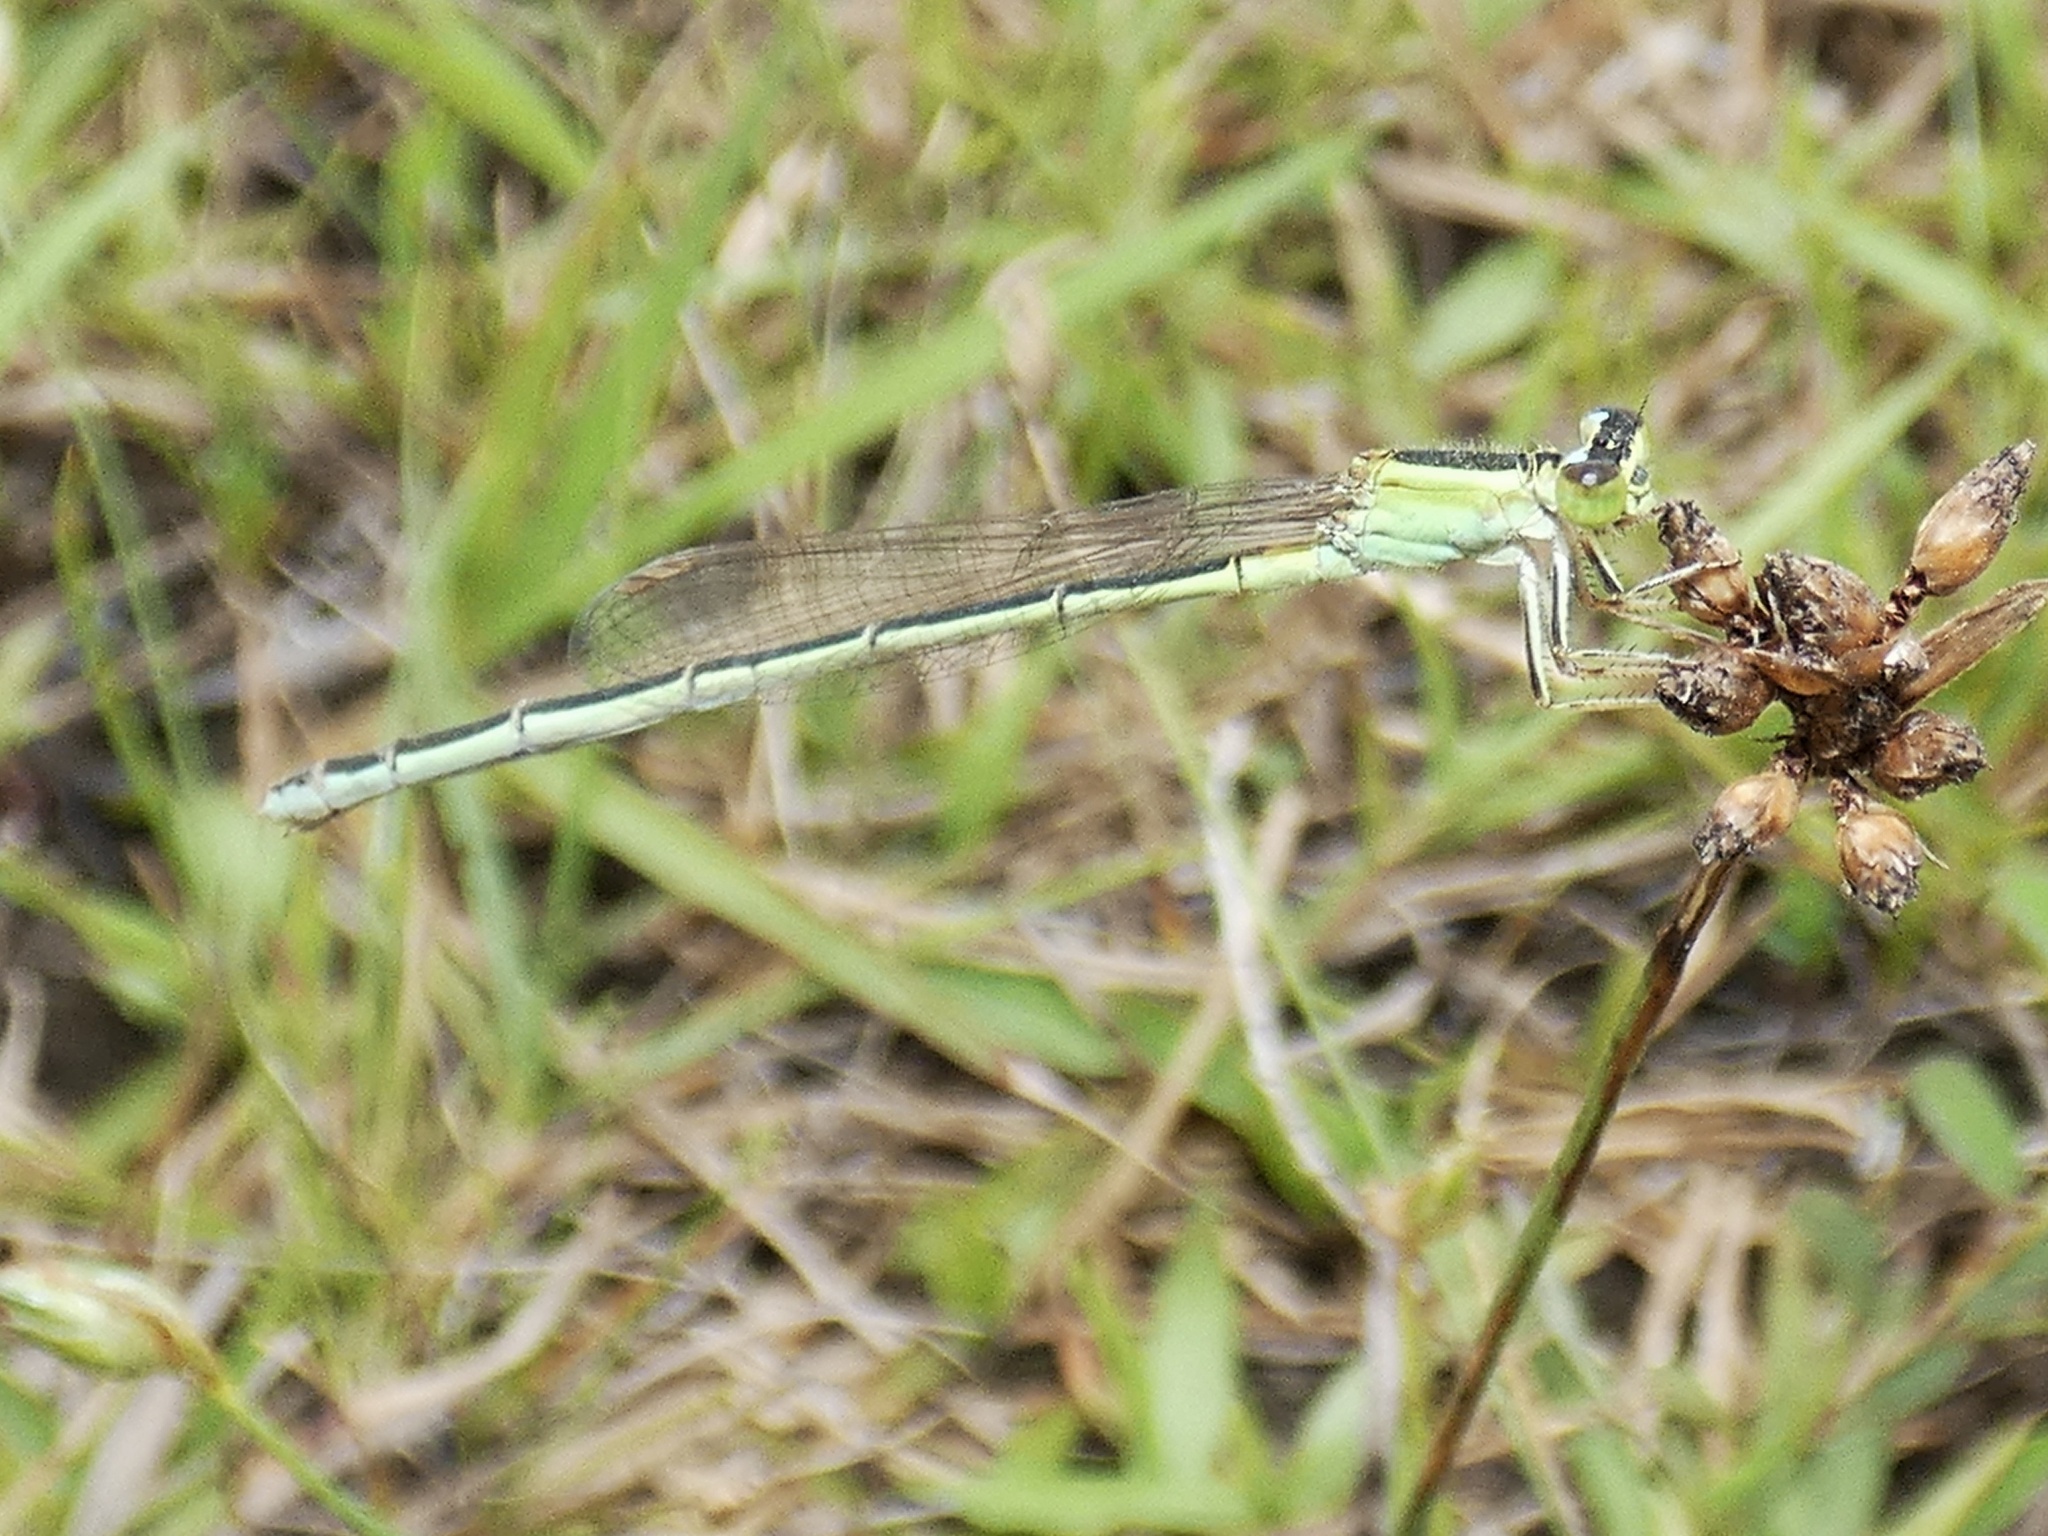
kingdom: Animalia
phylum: Arthropoda
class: Insecta
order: Odonata
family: Coenagrionidae
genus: Ischnura
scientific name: Ischnura senegalensis
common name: Tropical bluetail
